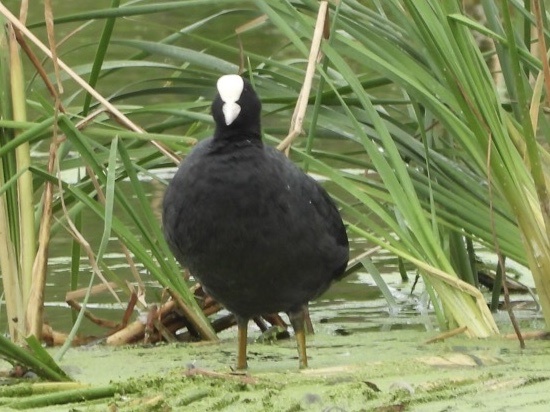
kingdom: Animalia
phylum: Chordata
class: Aves
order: Gruiformes
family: Rallidae
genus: Fulica
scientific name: Fulica atra
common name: Eurasian coot
